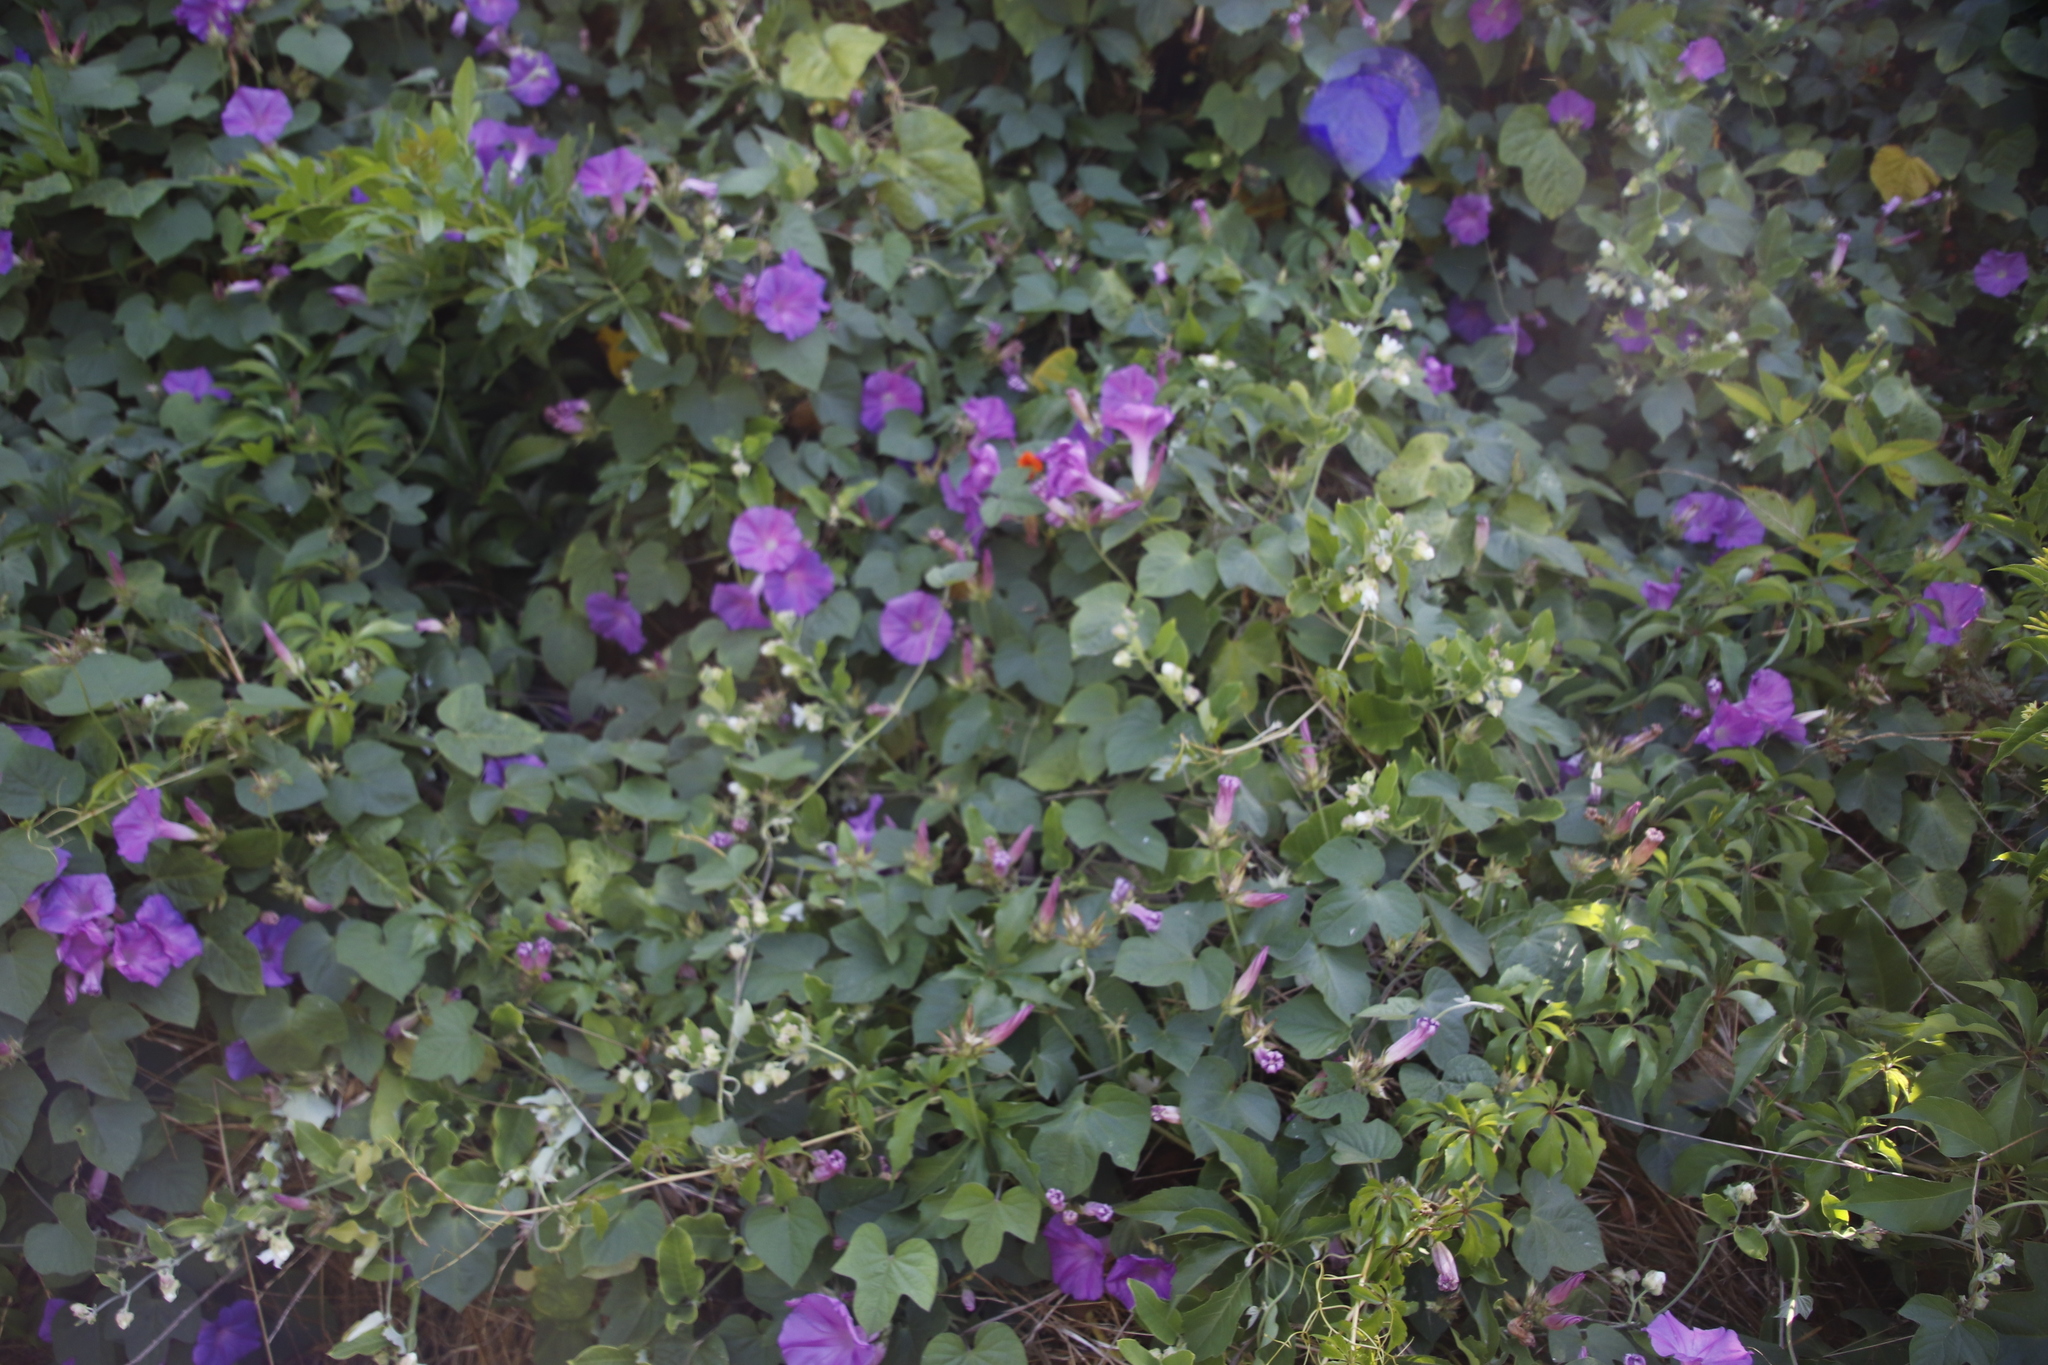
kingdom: Plantae
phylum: Tracheophyta
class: Magnoliopsida
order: Solanales
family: Convolvulaceae
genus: Ipomoea
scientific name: Ipomoea indica
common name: Blue dawnflower
